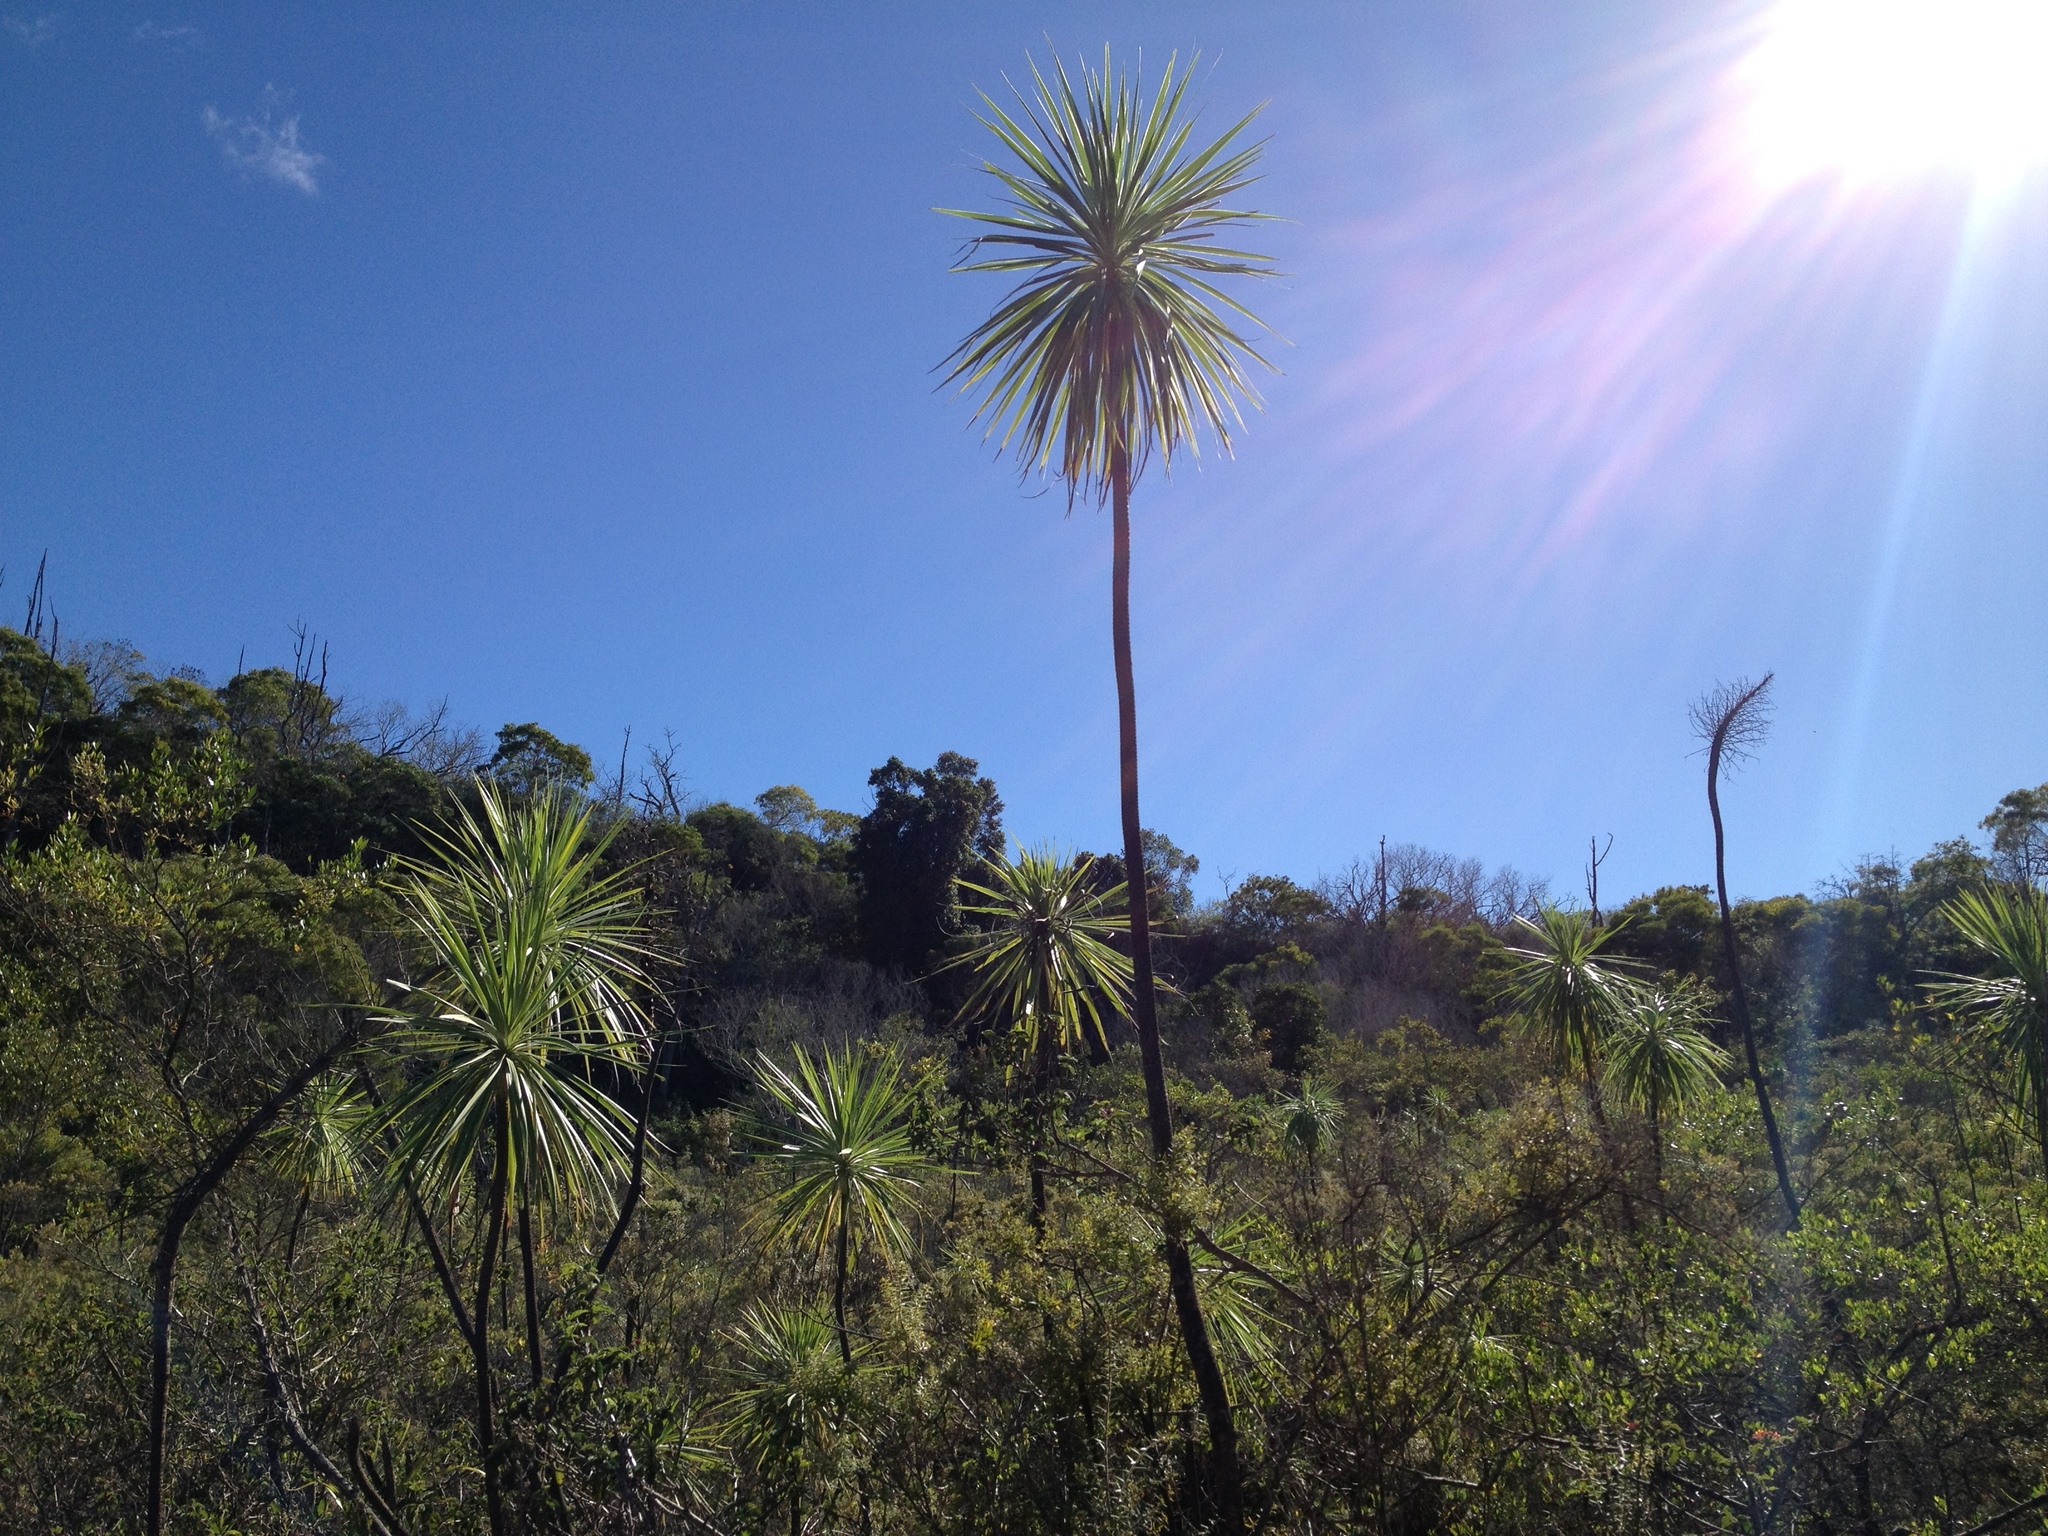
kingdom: Plantae
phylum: Tracheophyta
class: Magnoliopsida
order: Asterales
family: Asteraceae
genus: Wilkesia
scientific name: Wilkesia gymnoxiphium
